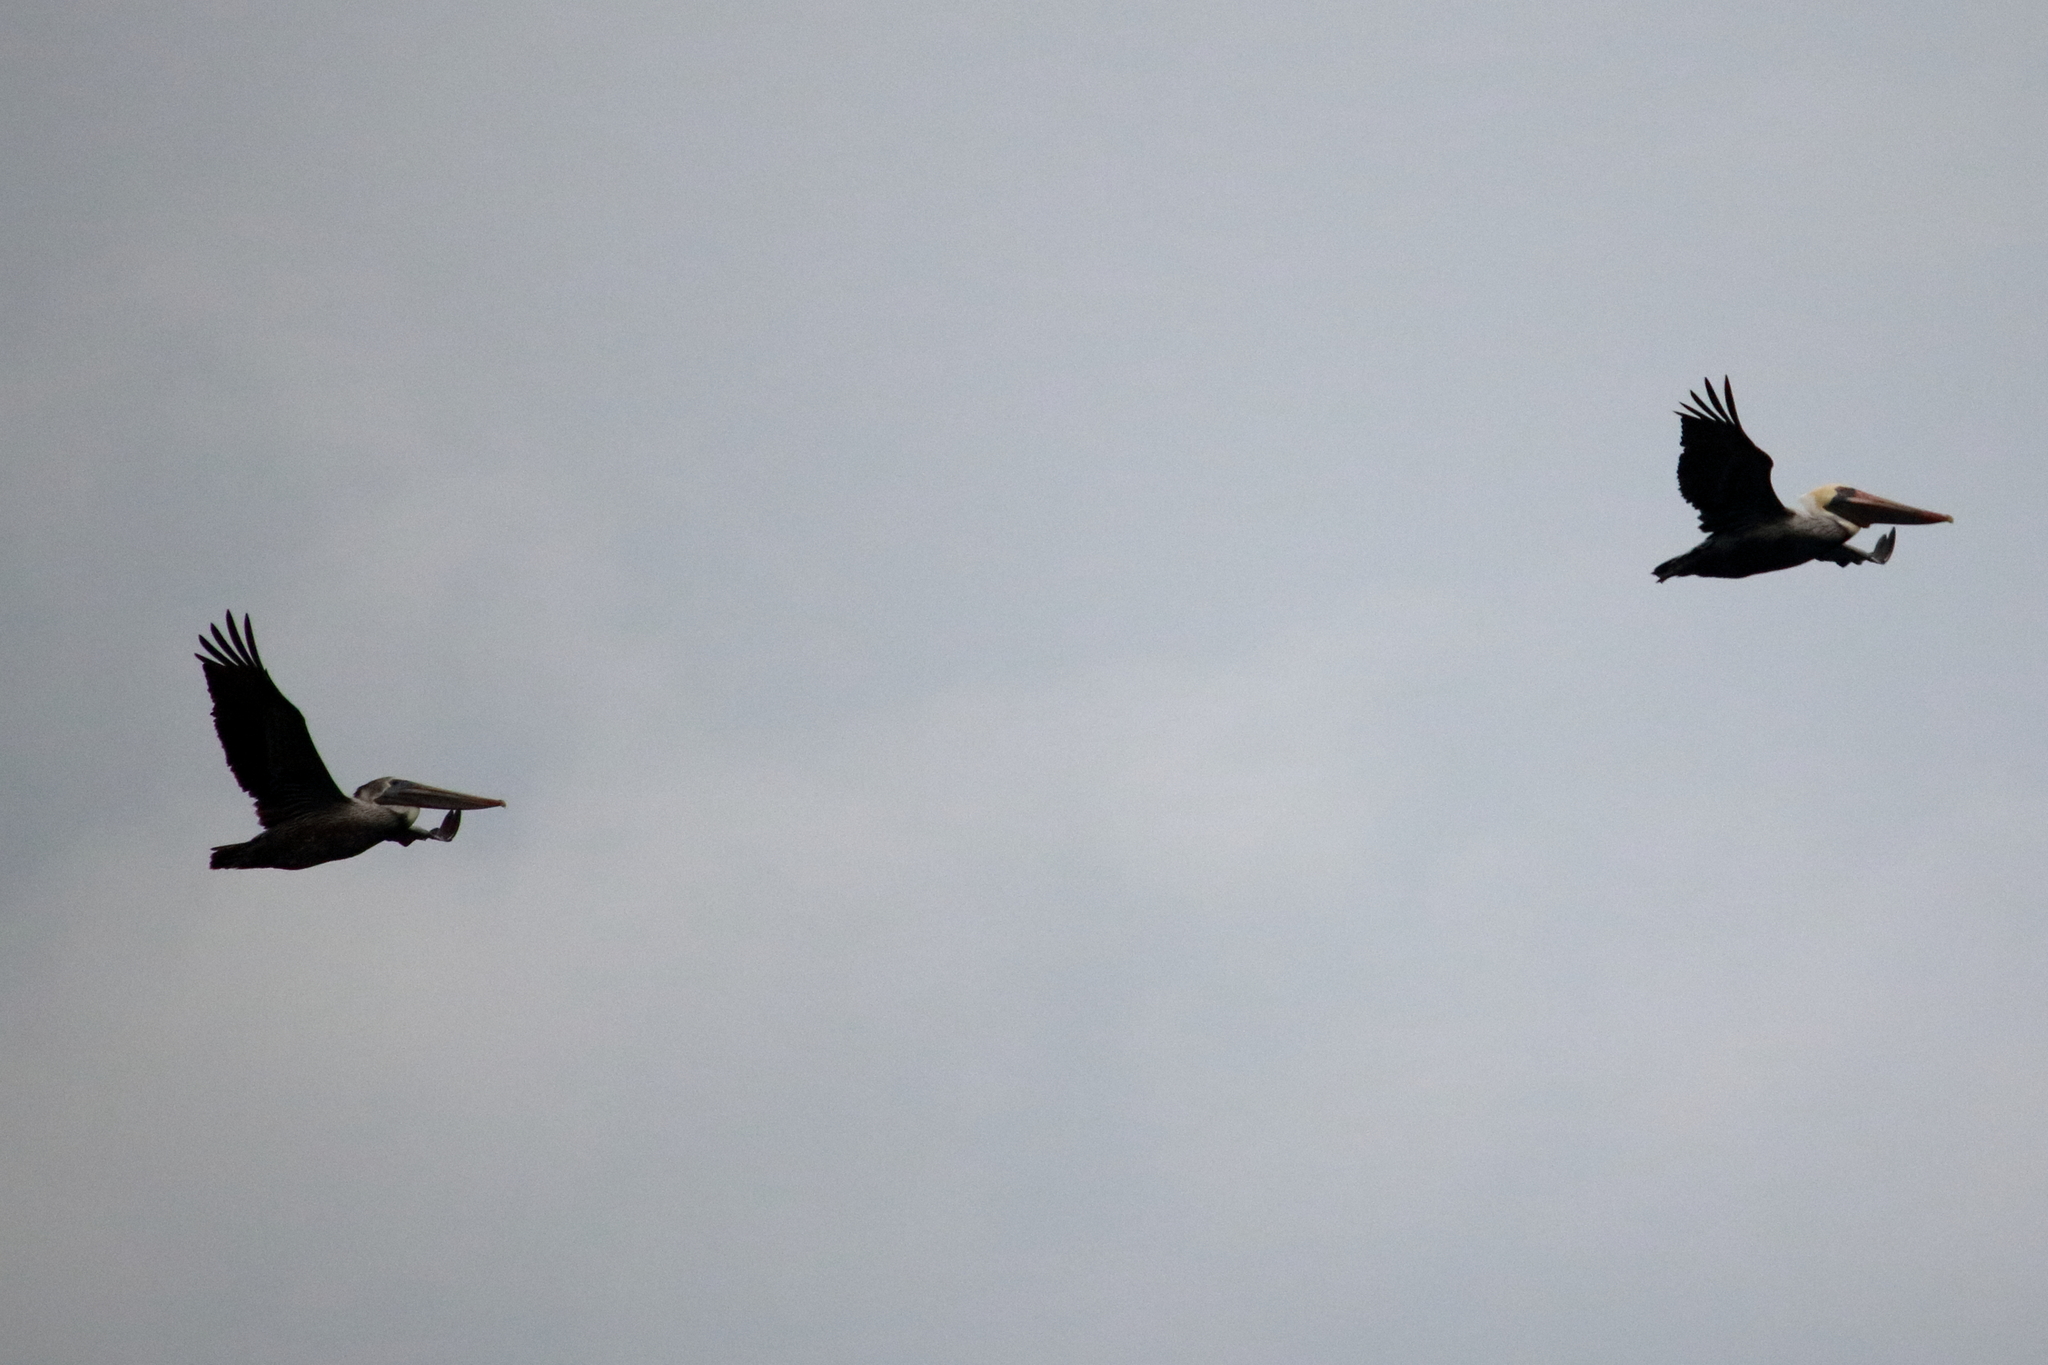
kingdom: Animalia
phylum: Chordata
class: Aves
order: Pelecaniformes
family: Pelecanidae
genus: Pelecanus
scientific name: Pelecanus occidentalis
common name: Brown pelican
